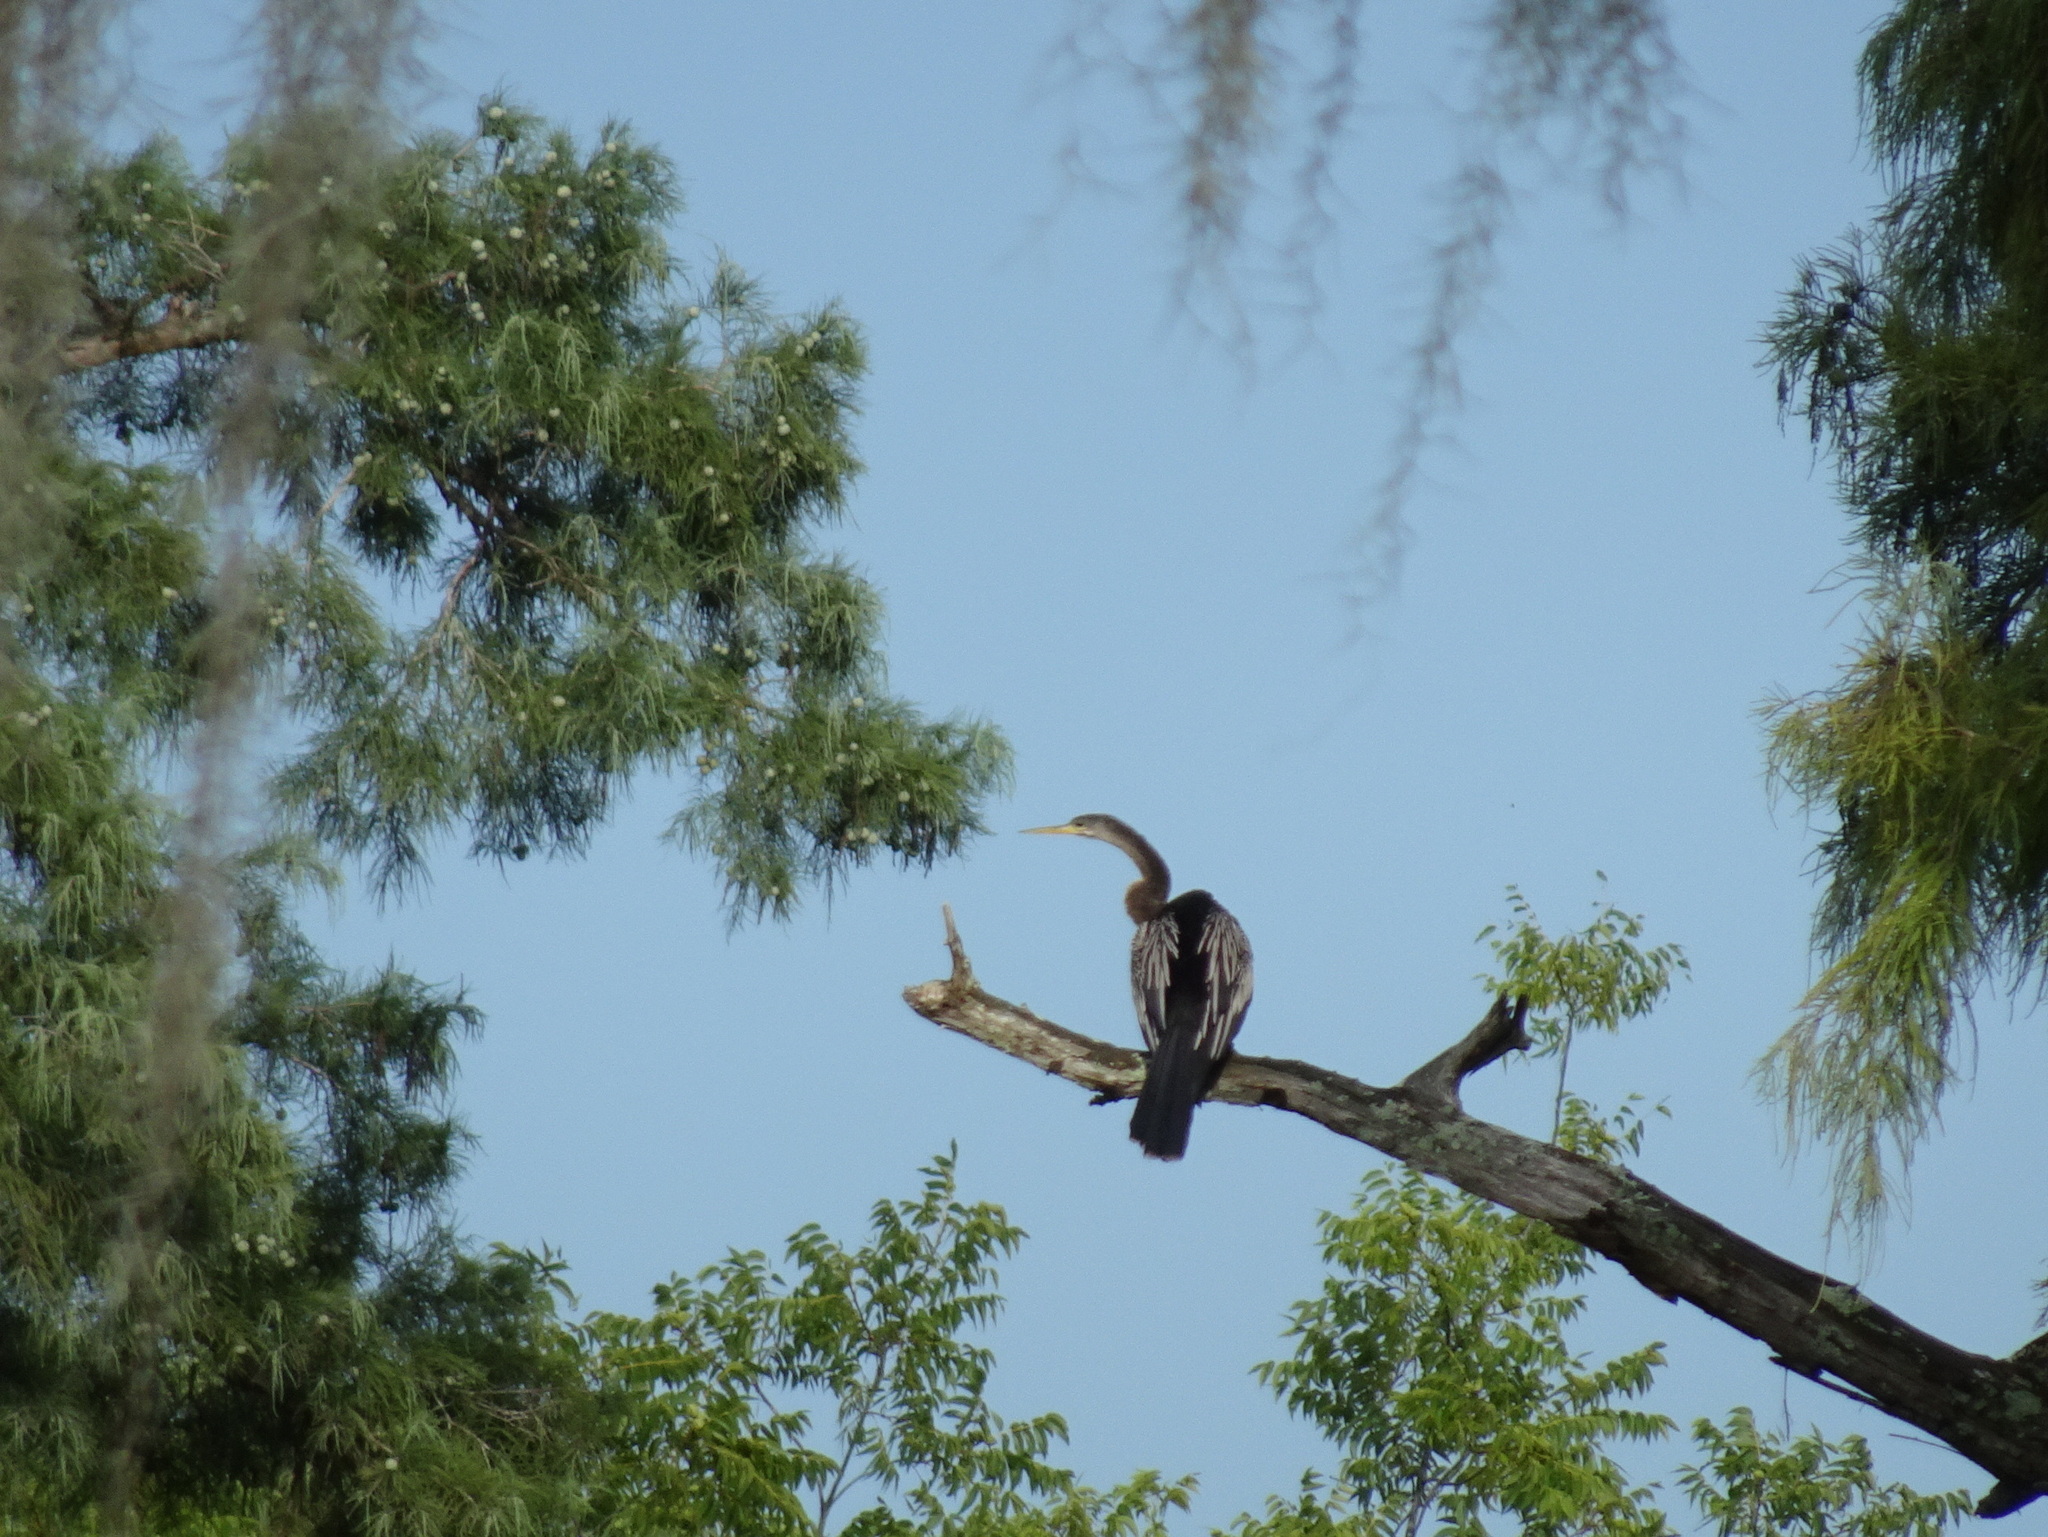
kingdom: Animalia
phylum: Chordata
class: Aves
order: Suliformes
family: Anhingidae
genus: Anhinga
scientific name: Anhinga anhinga
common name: Anhinga
